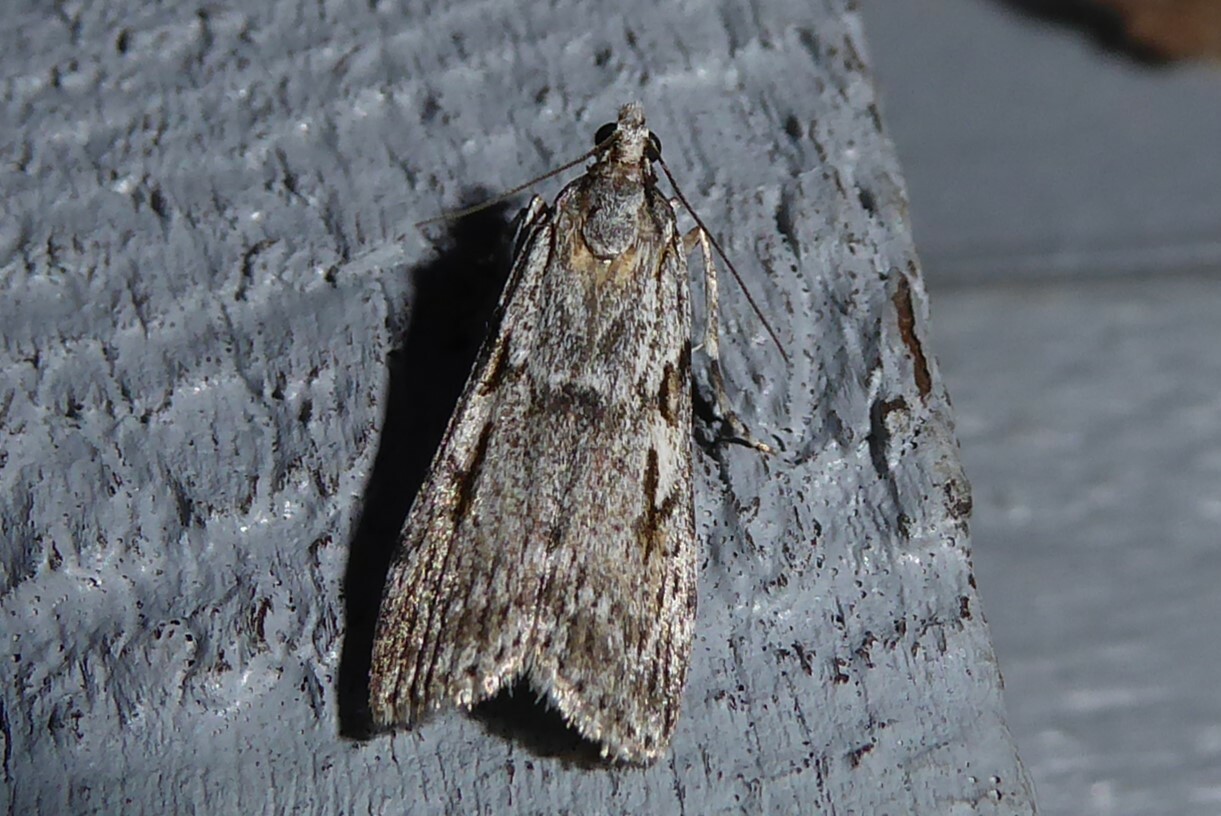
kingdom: Animalia
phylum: Arthropoda
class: Insecta
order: Lepidoptera
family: Crambidae
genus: Scoparia
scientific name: Scoparia halopis
